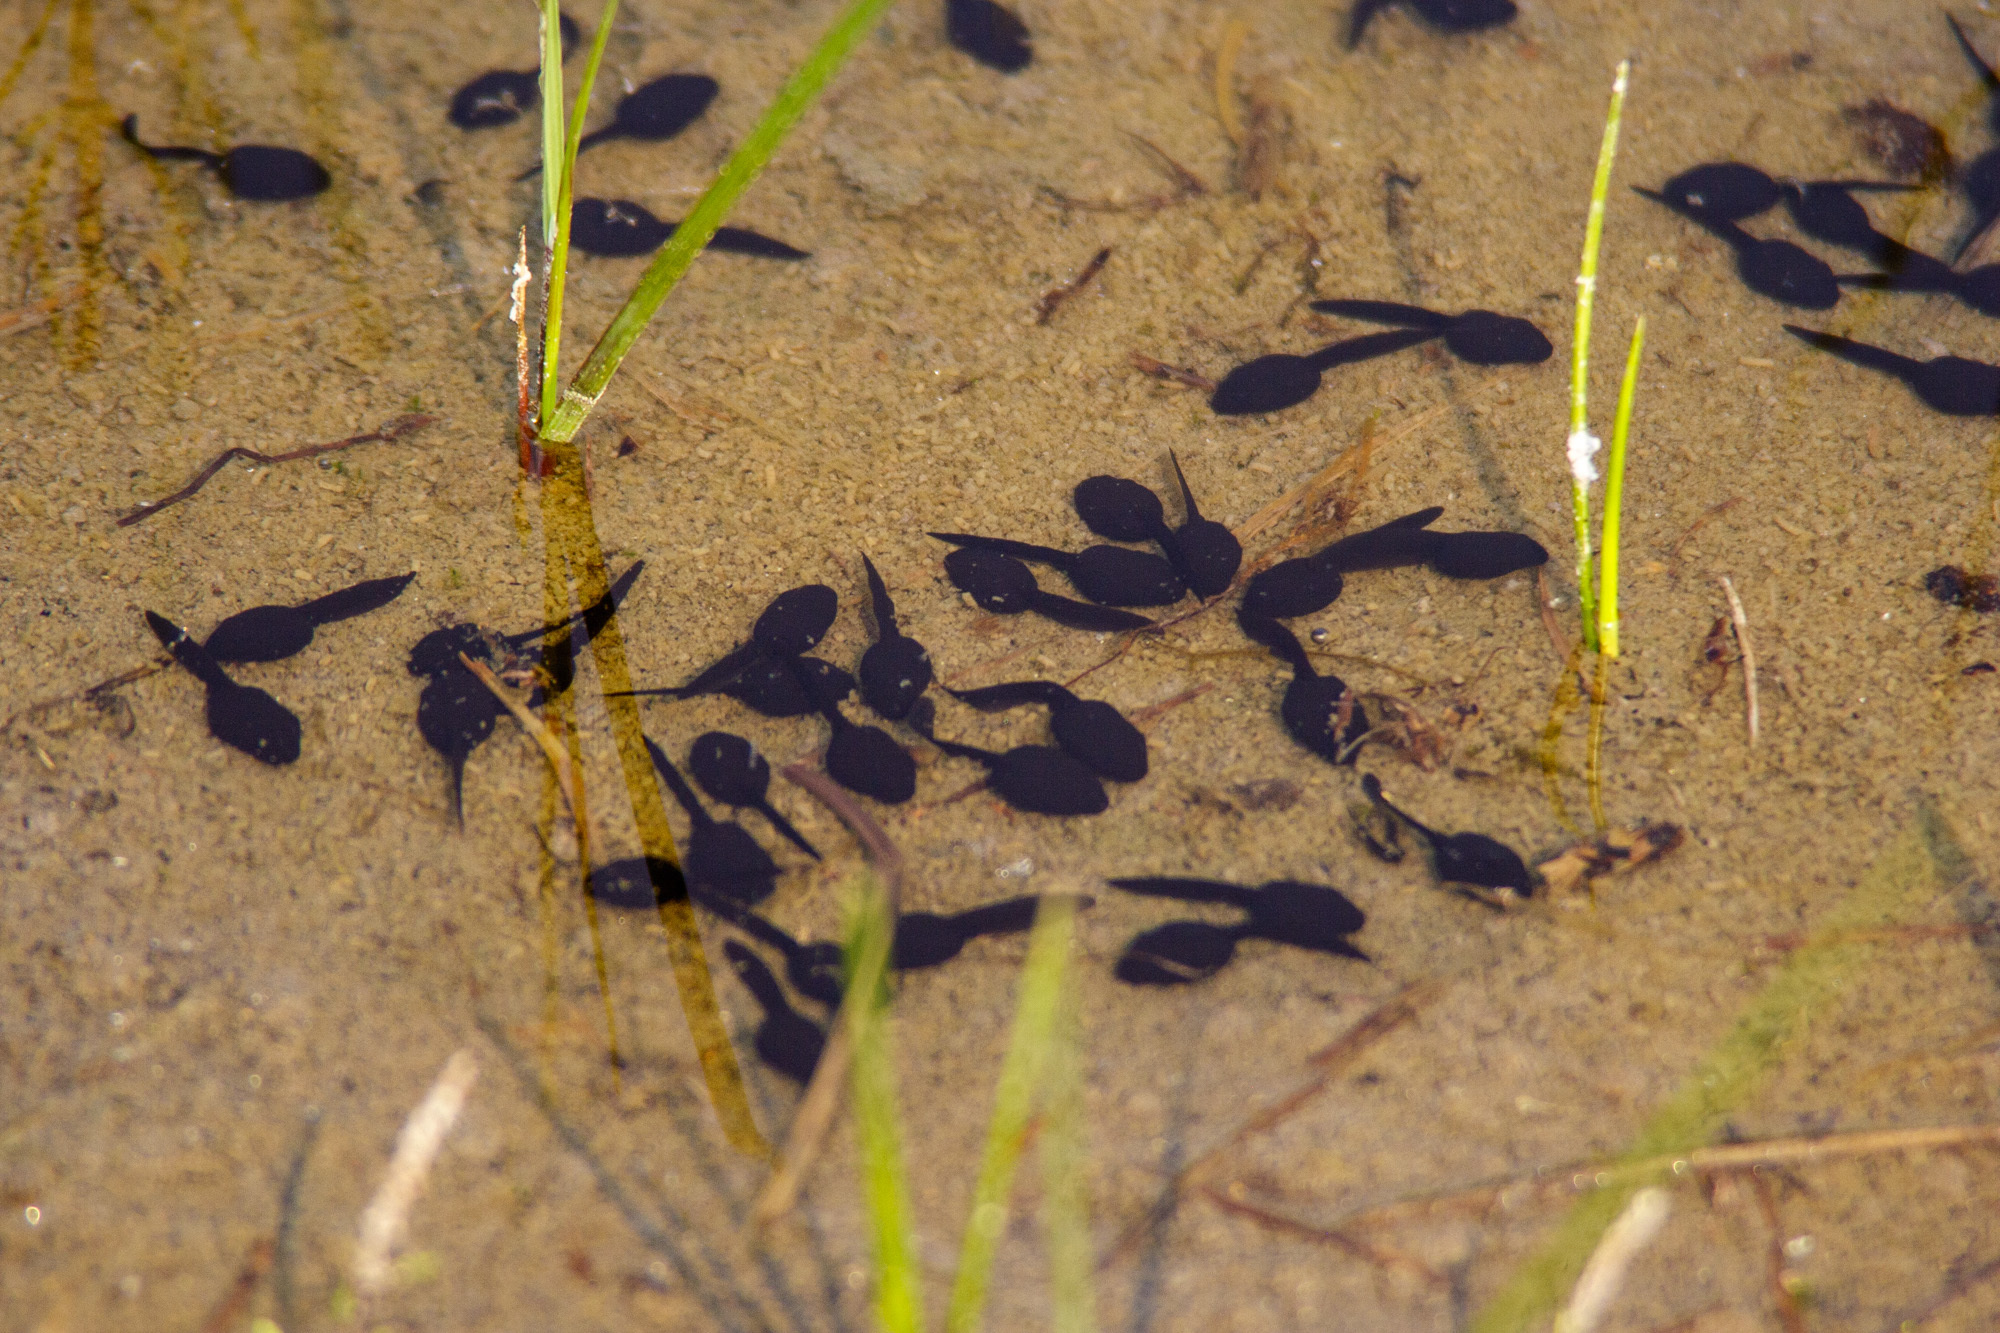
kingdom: Animalia
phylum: Chordata
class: Amphibia
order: Anura
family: Bufonidae
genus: Anaxyrus
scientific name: Anaxyrus boreas
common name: Western toad
